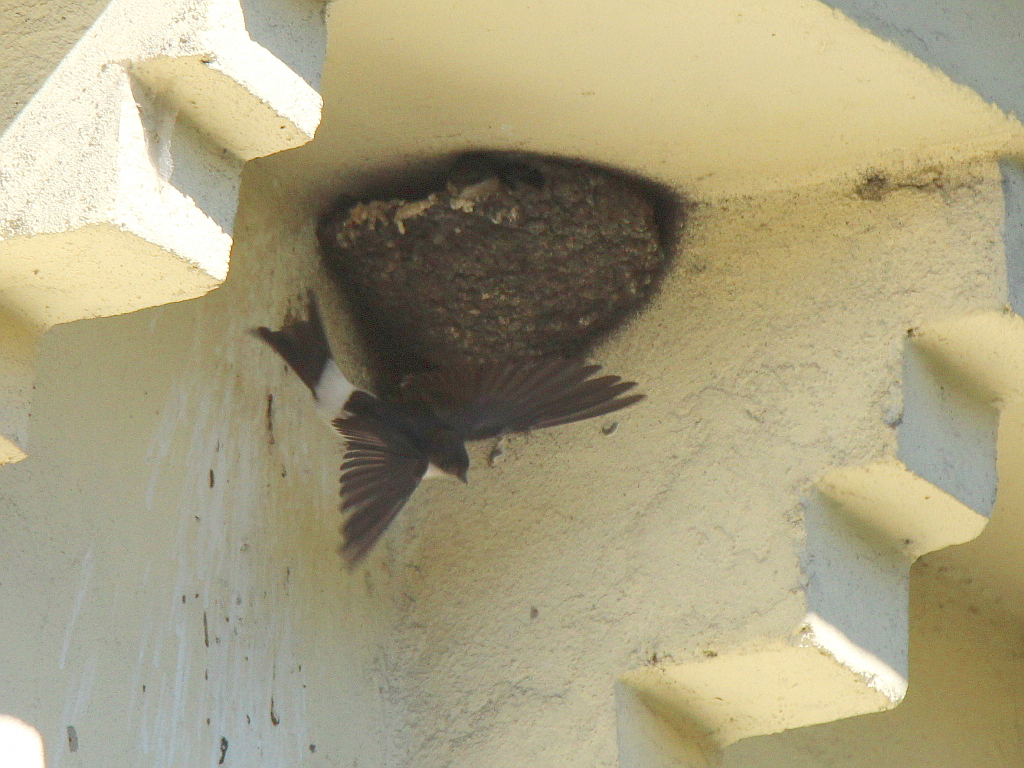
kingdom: Animalia
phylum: Chordata
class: Aves
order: Passeriformes
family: Hirundinidae
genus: Delichon
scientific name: Delichon urbicum
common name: Common house martin
